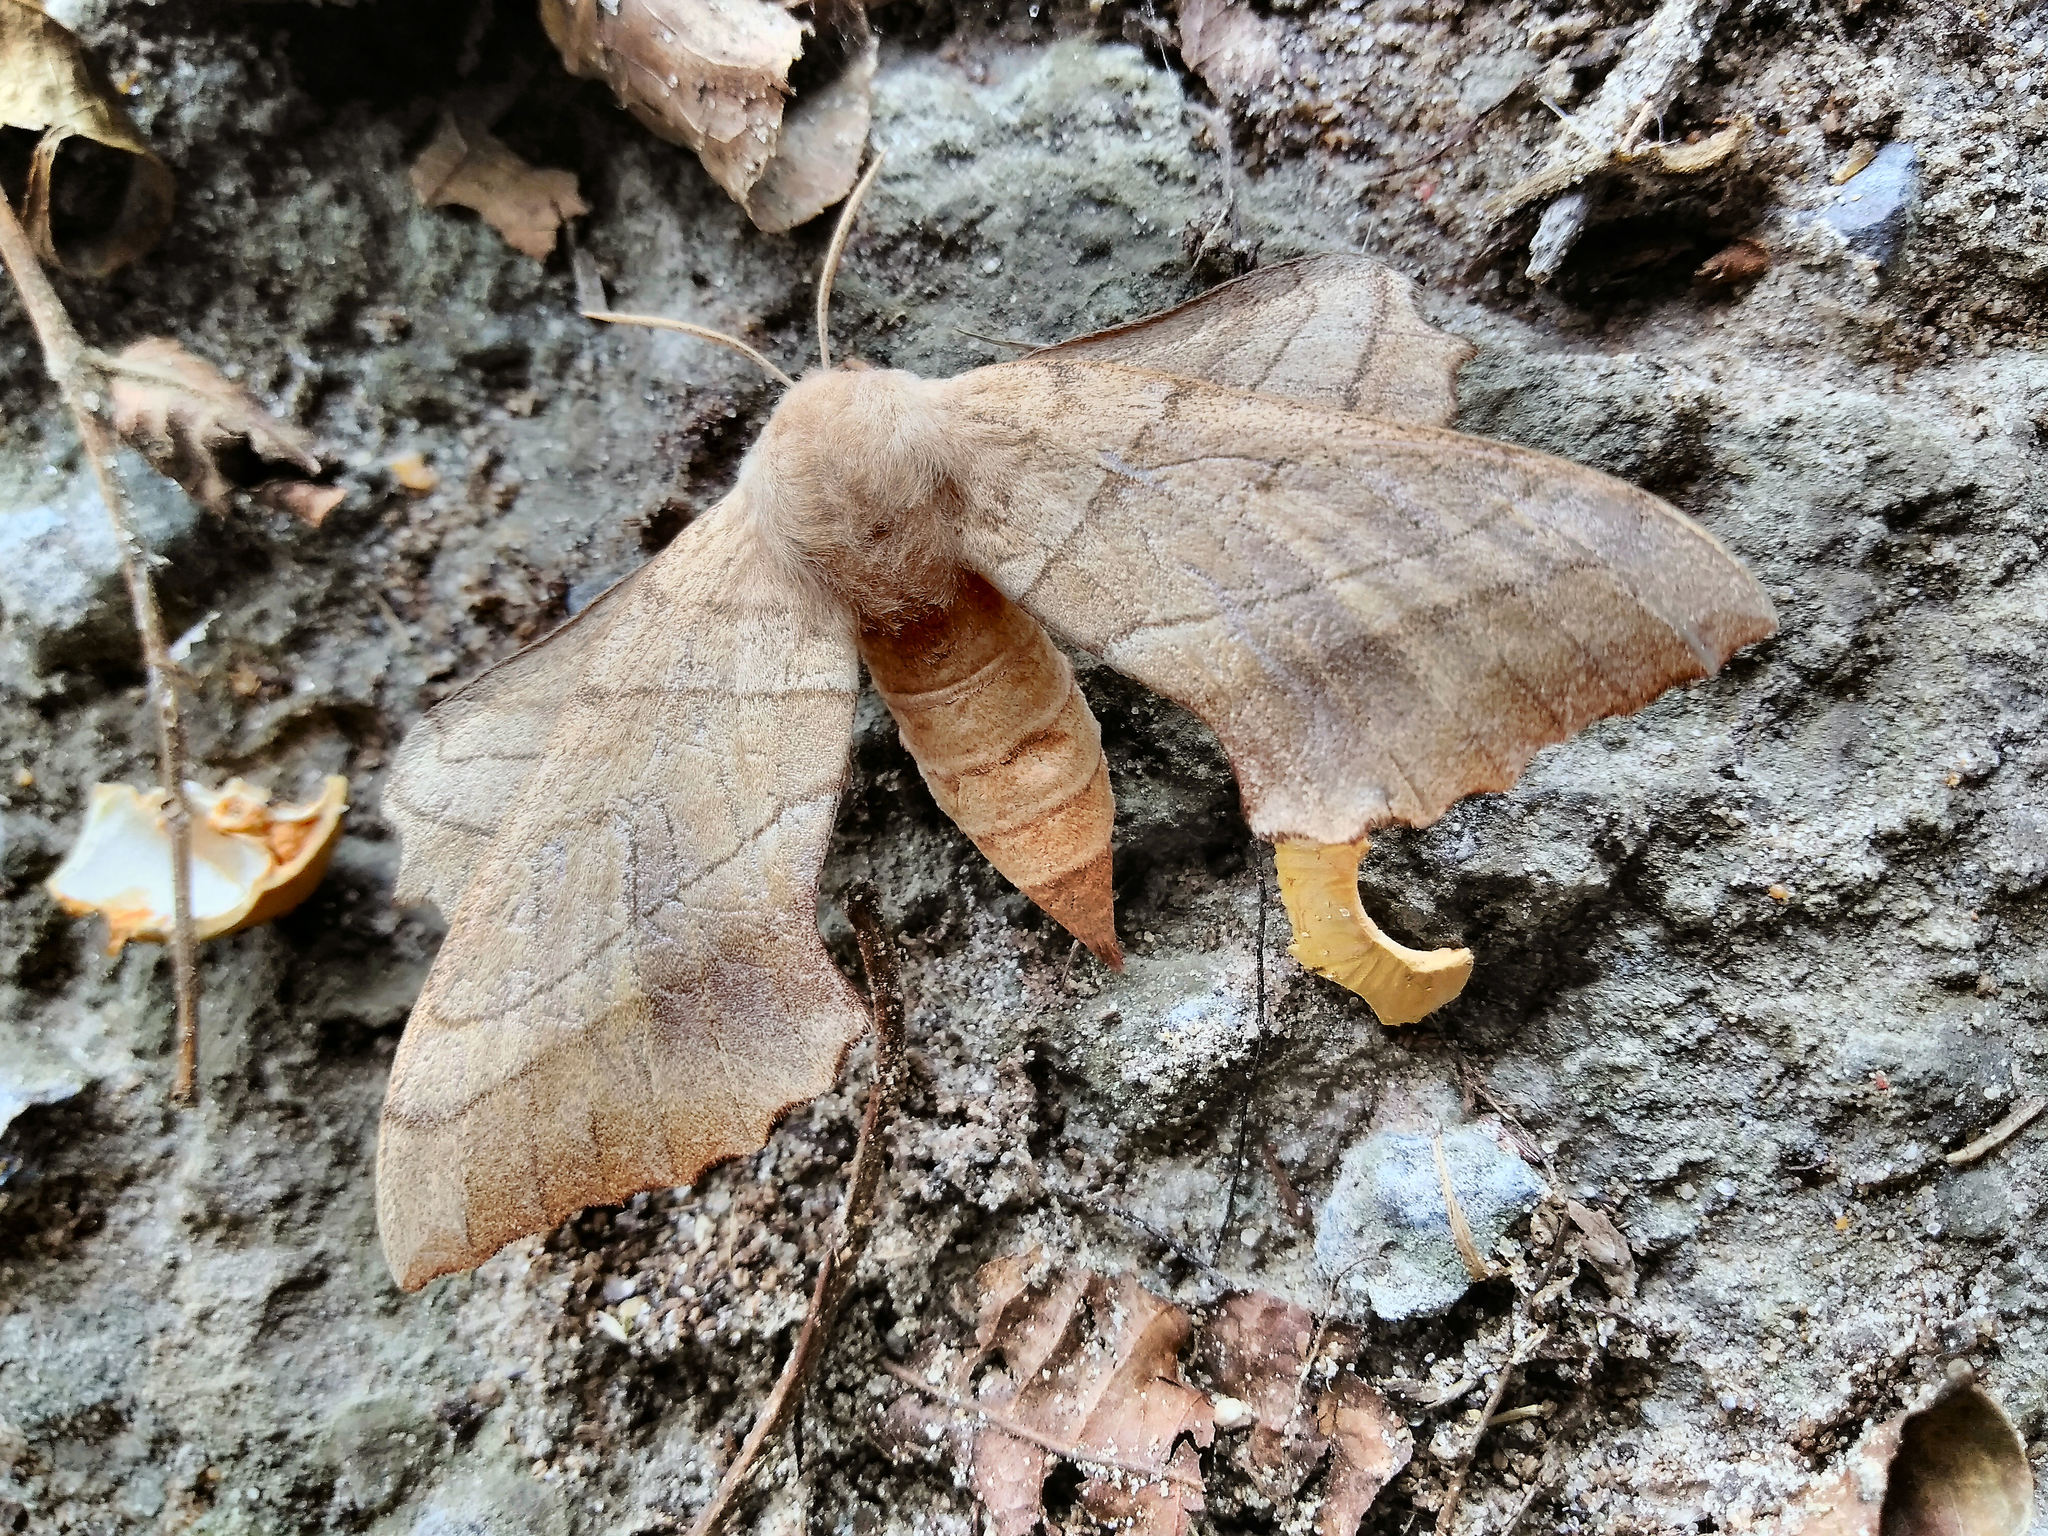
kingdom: Animalia
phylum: Arthropoda
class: Insecta
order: Lepidoptera
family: Sphingidae
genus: Amorpha
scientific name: Amorpha juglandis
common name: Walnut sphinx
